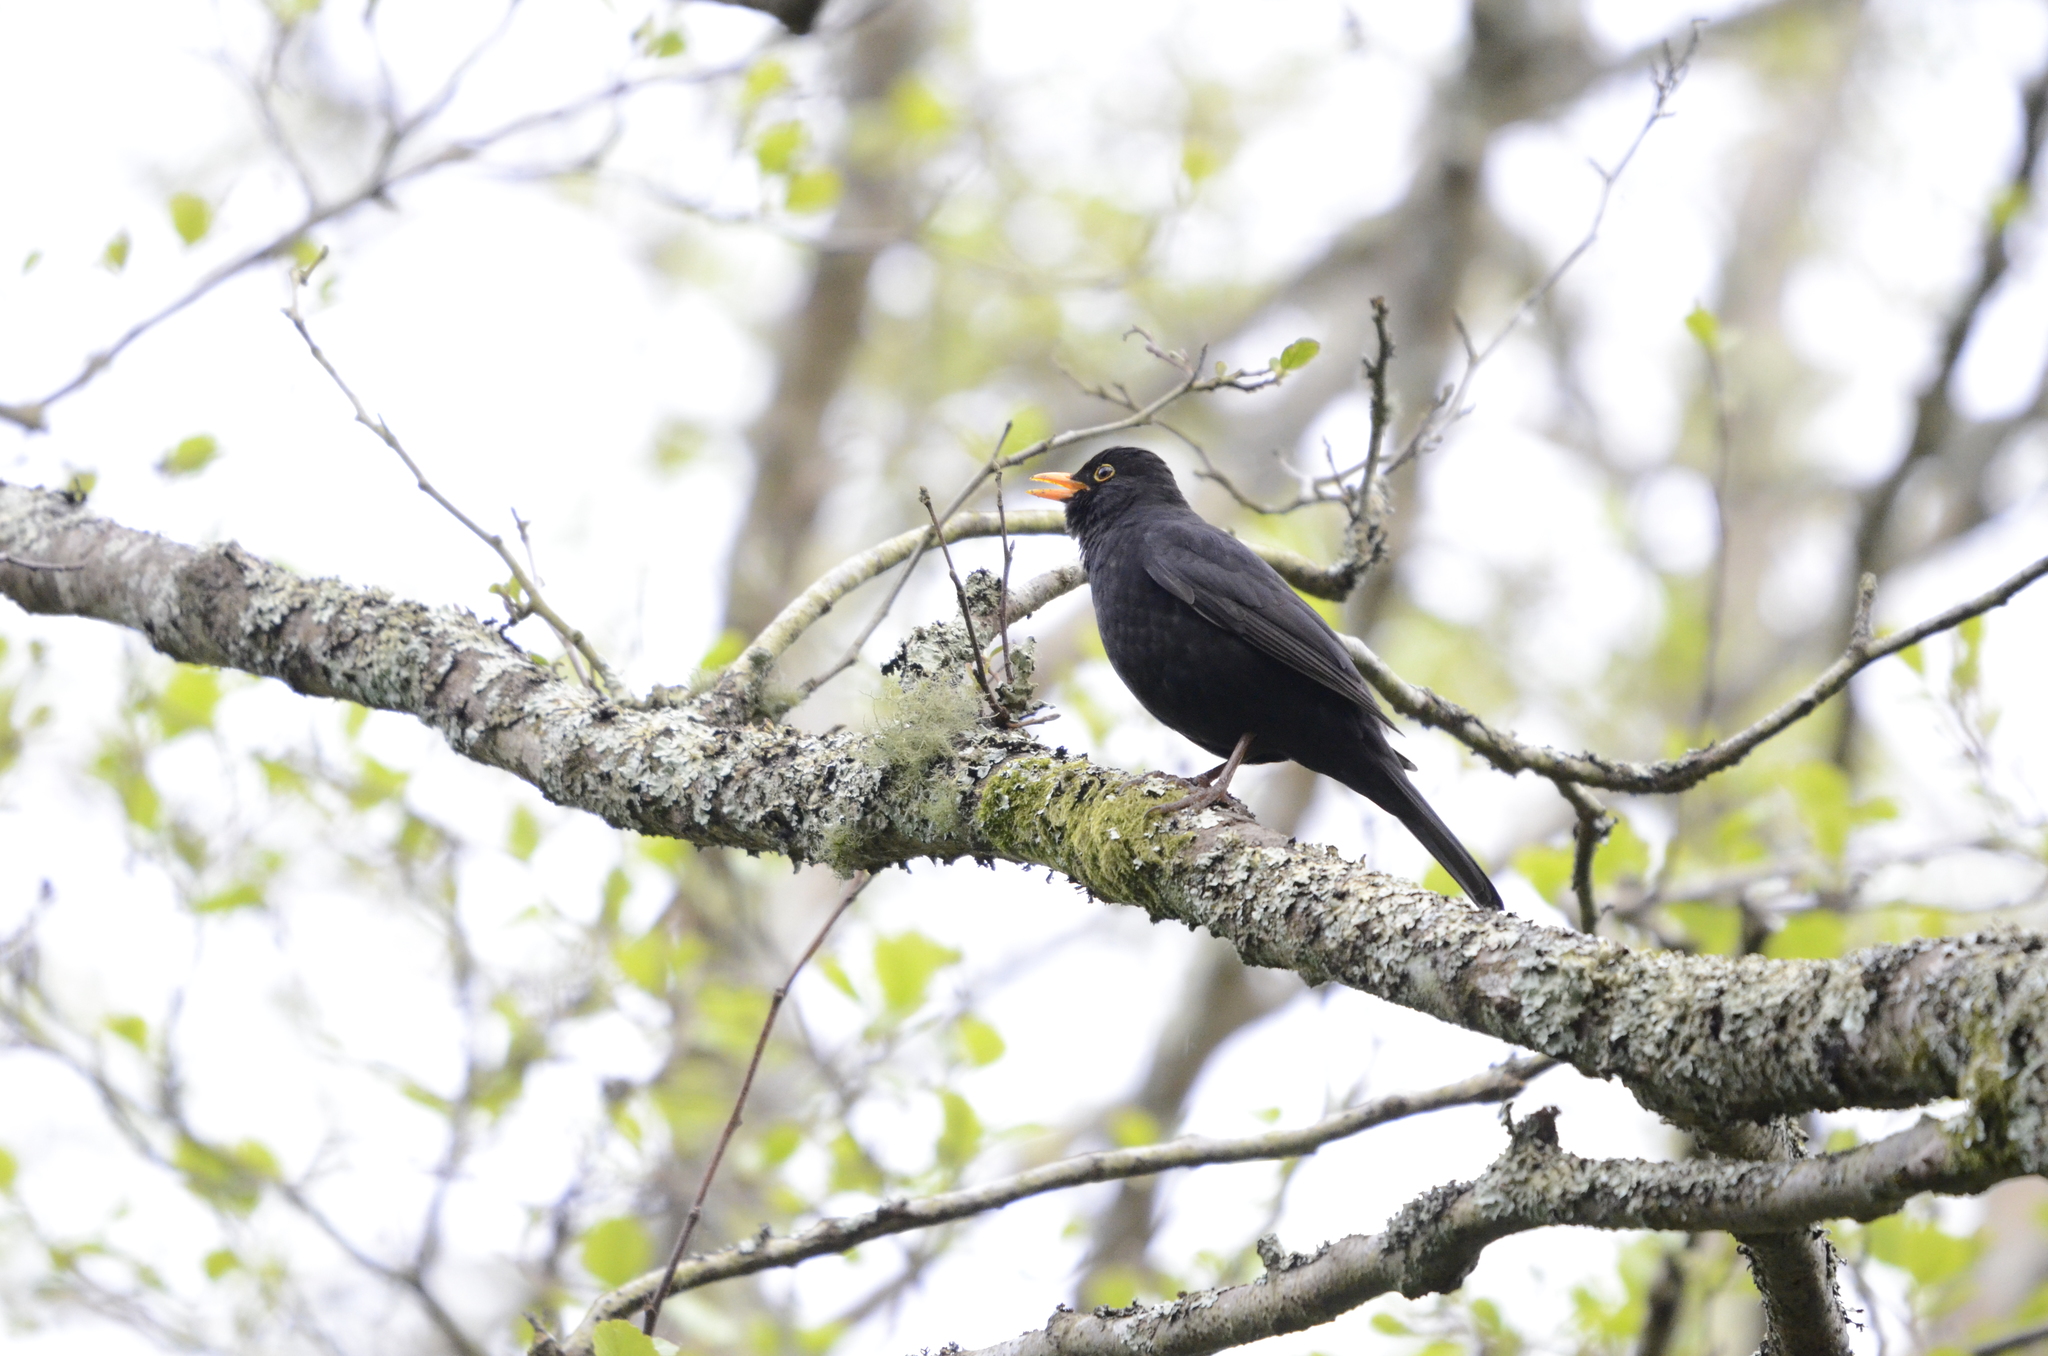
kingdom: Animalia
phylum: Chordata
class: Aves
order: Passeriformes
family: Turdidae
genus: Turdus
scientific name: Turdus merula
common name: Common blackbird
